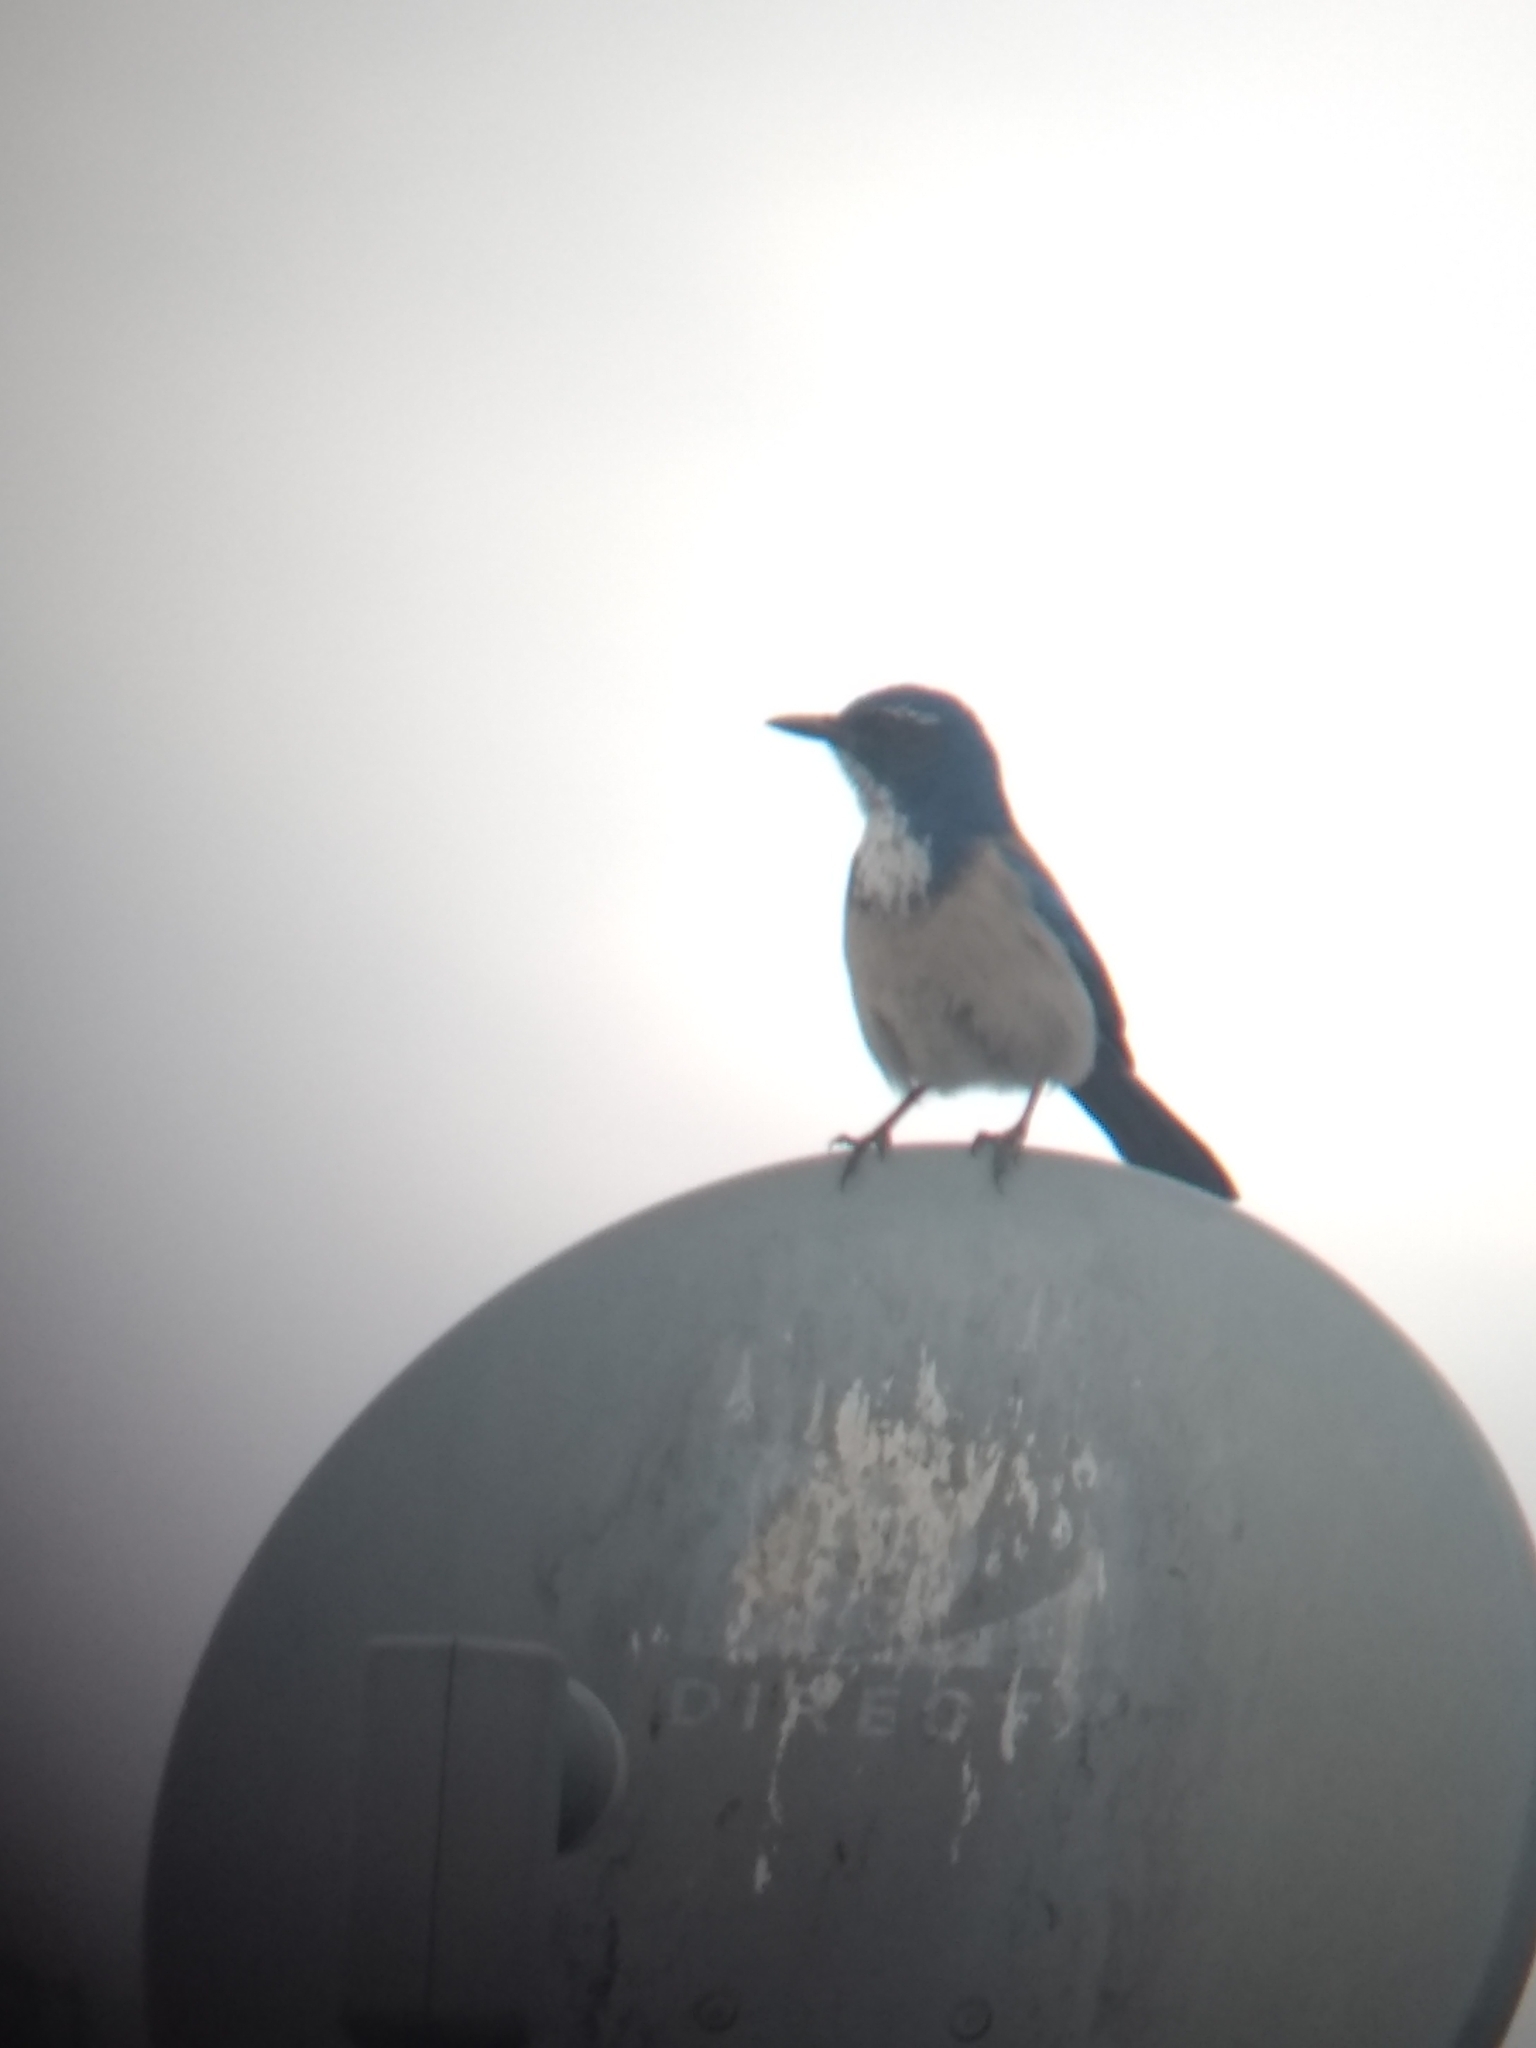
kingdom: Animalia
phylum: Chordata
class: Aves
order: Passeriformes
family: Corvidae
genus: Aphelocoma
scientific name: Aphelocoma californica
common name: California scrub-jay
